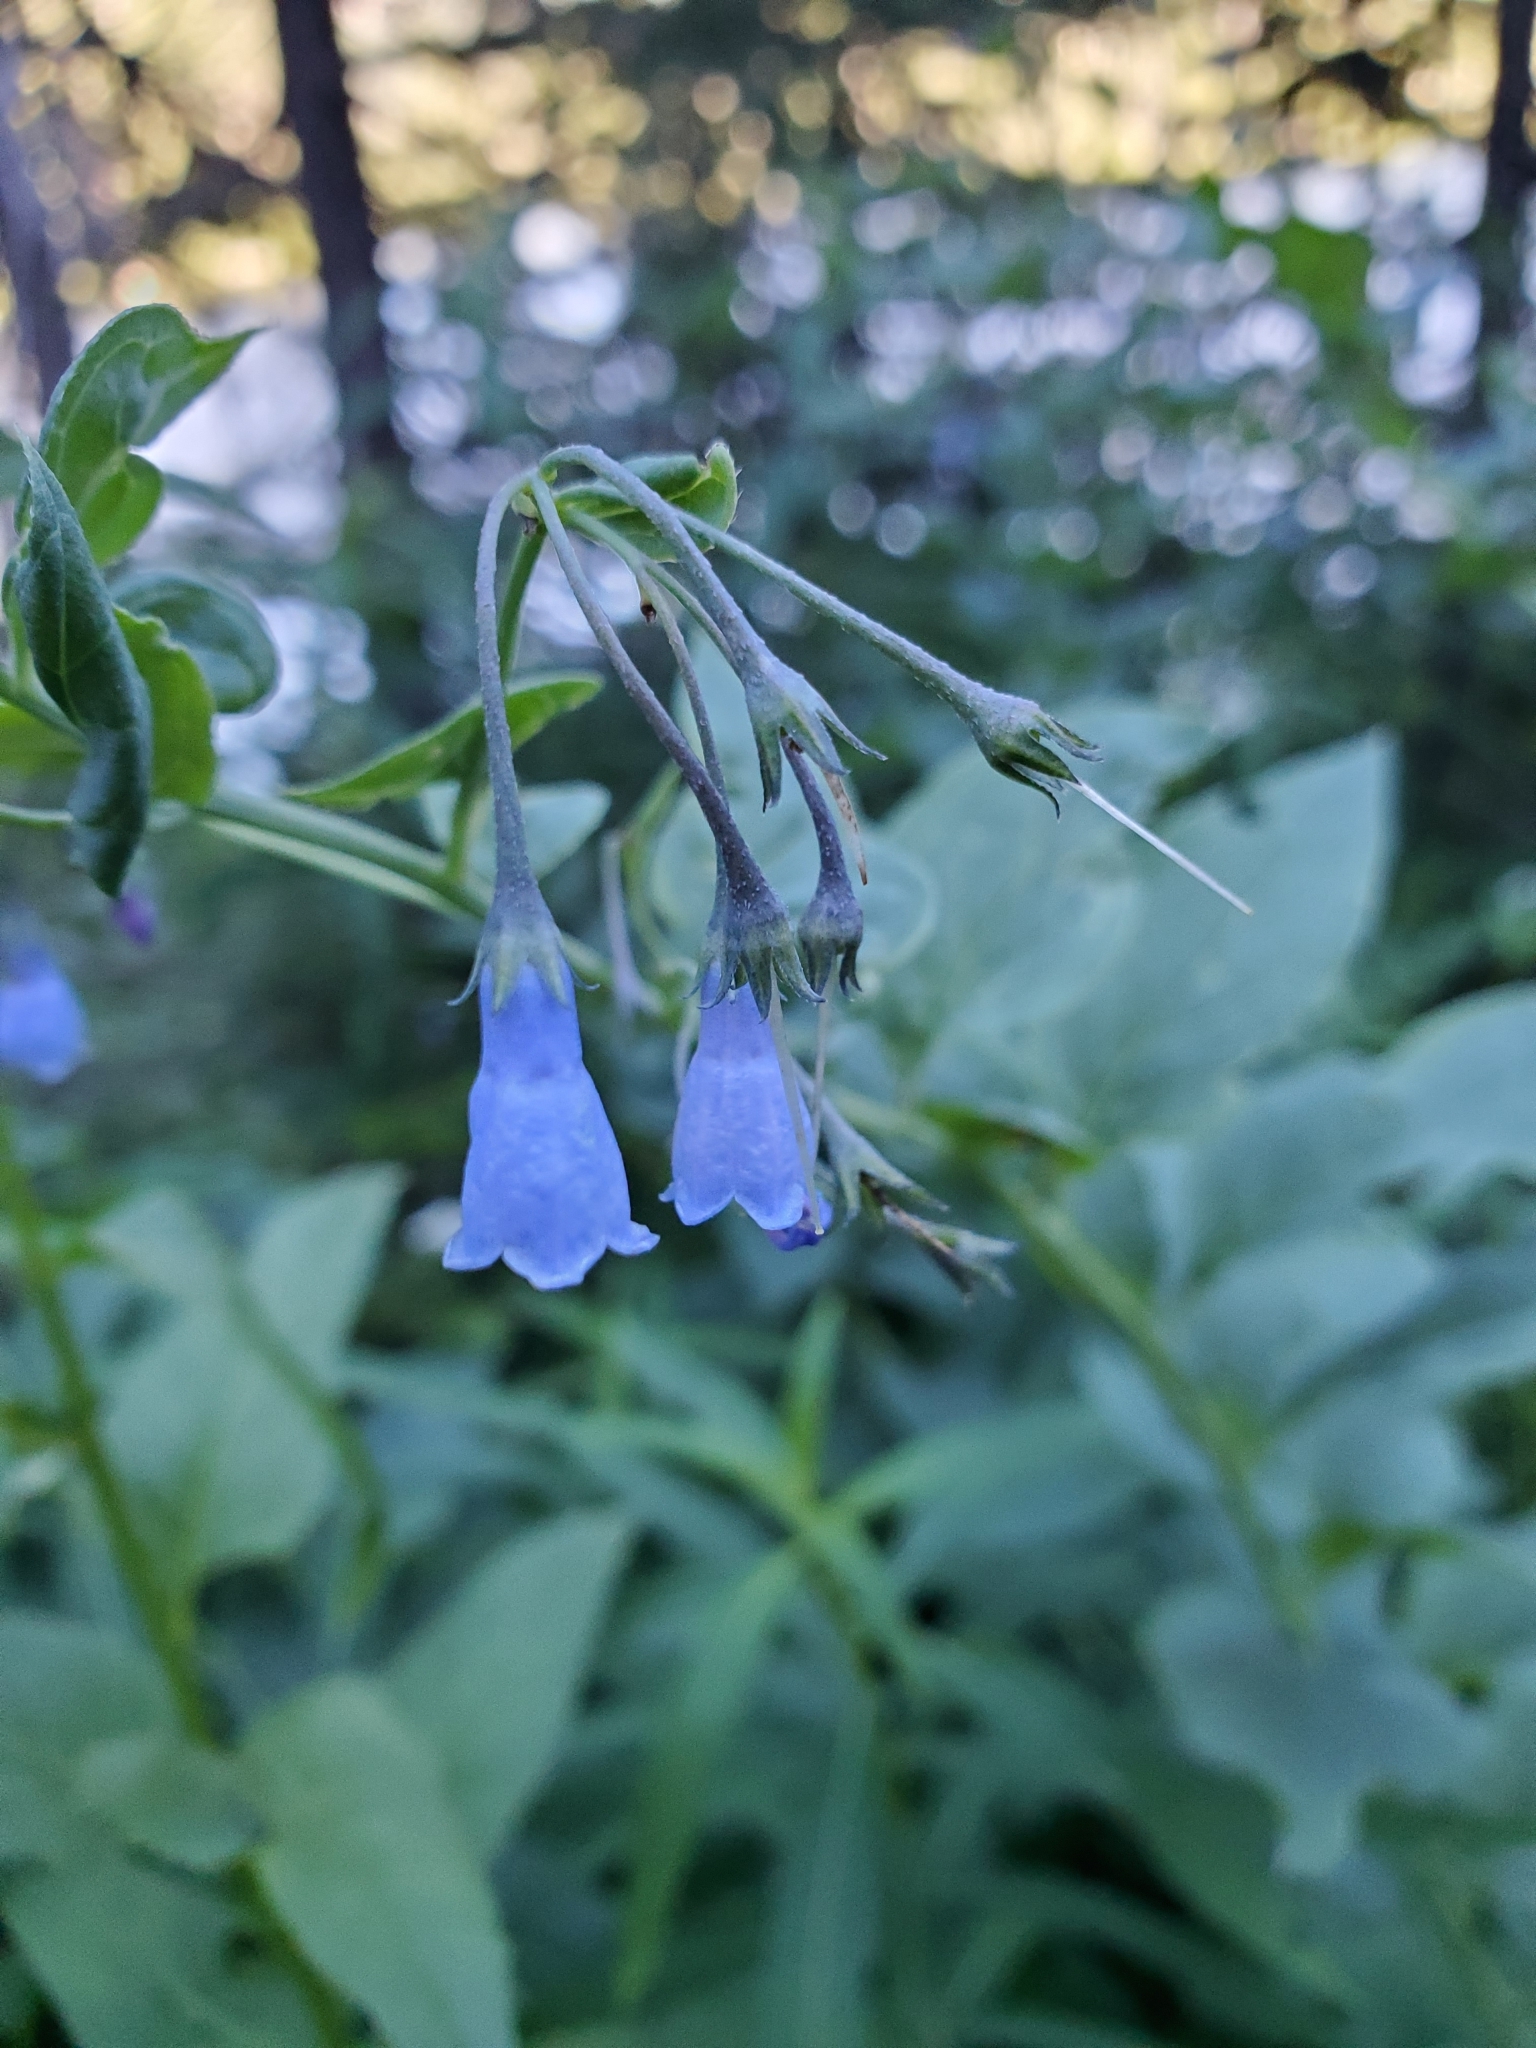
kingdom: Plantae
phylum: Tracheophyta
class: Magnoliopsida
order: Boraginales
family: Boraginaceae
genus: Mertensia
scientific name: Mertensia paniculata
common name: Panicled bluebells
